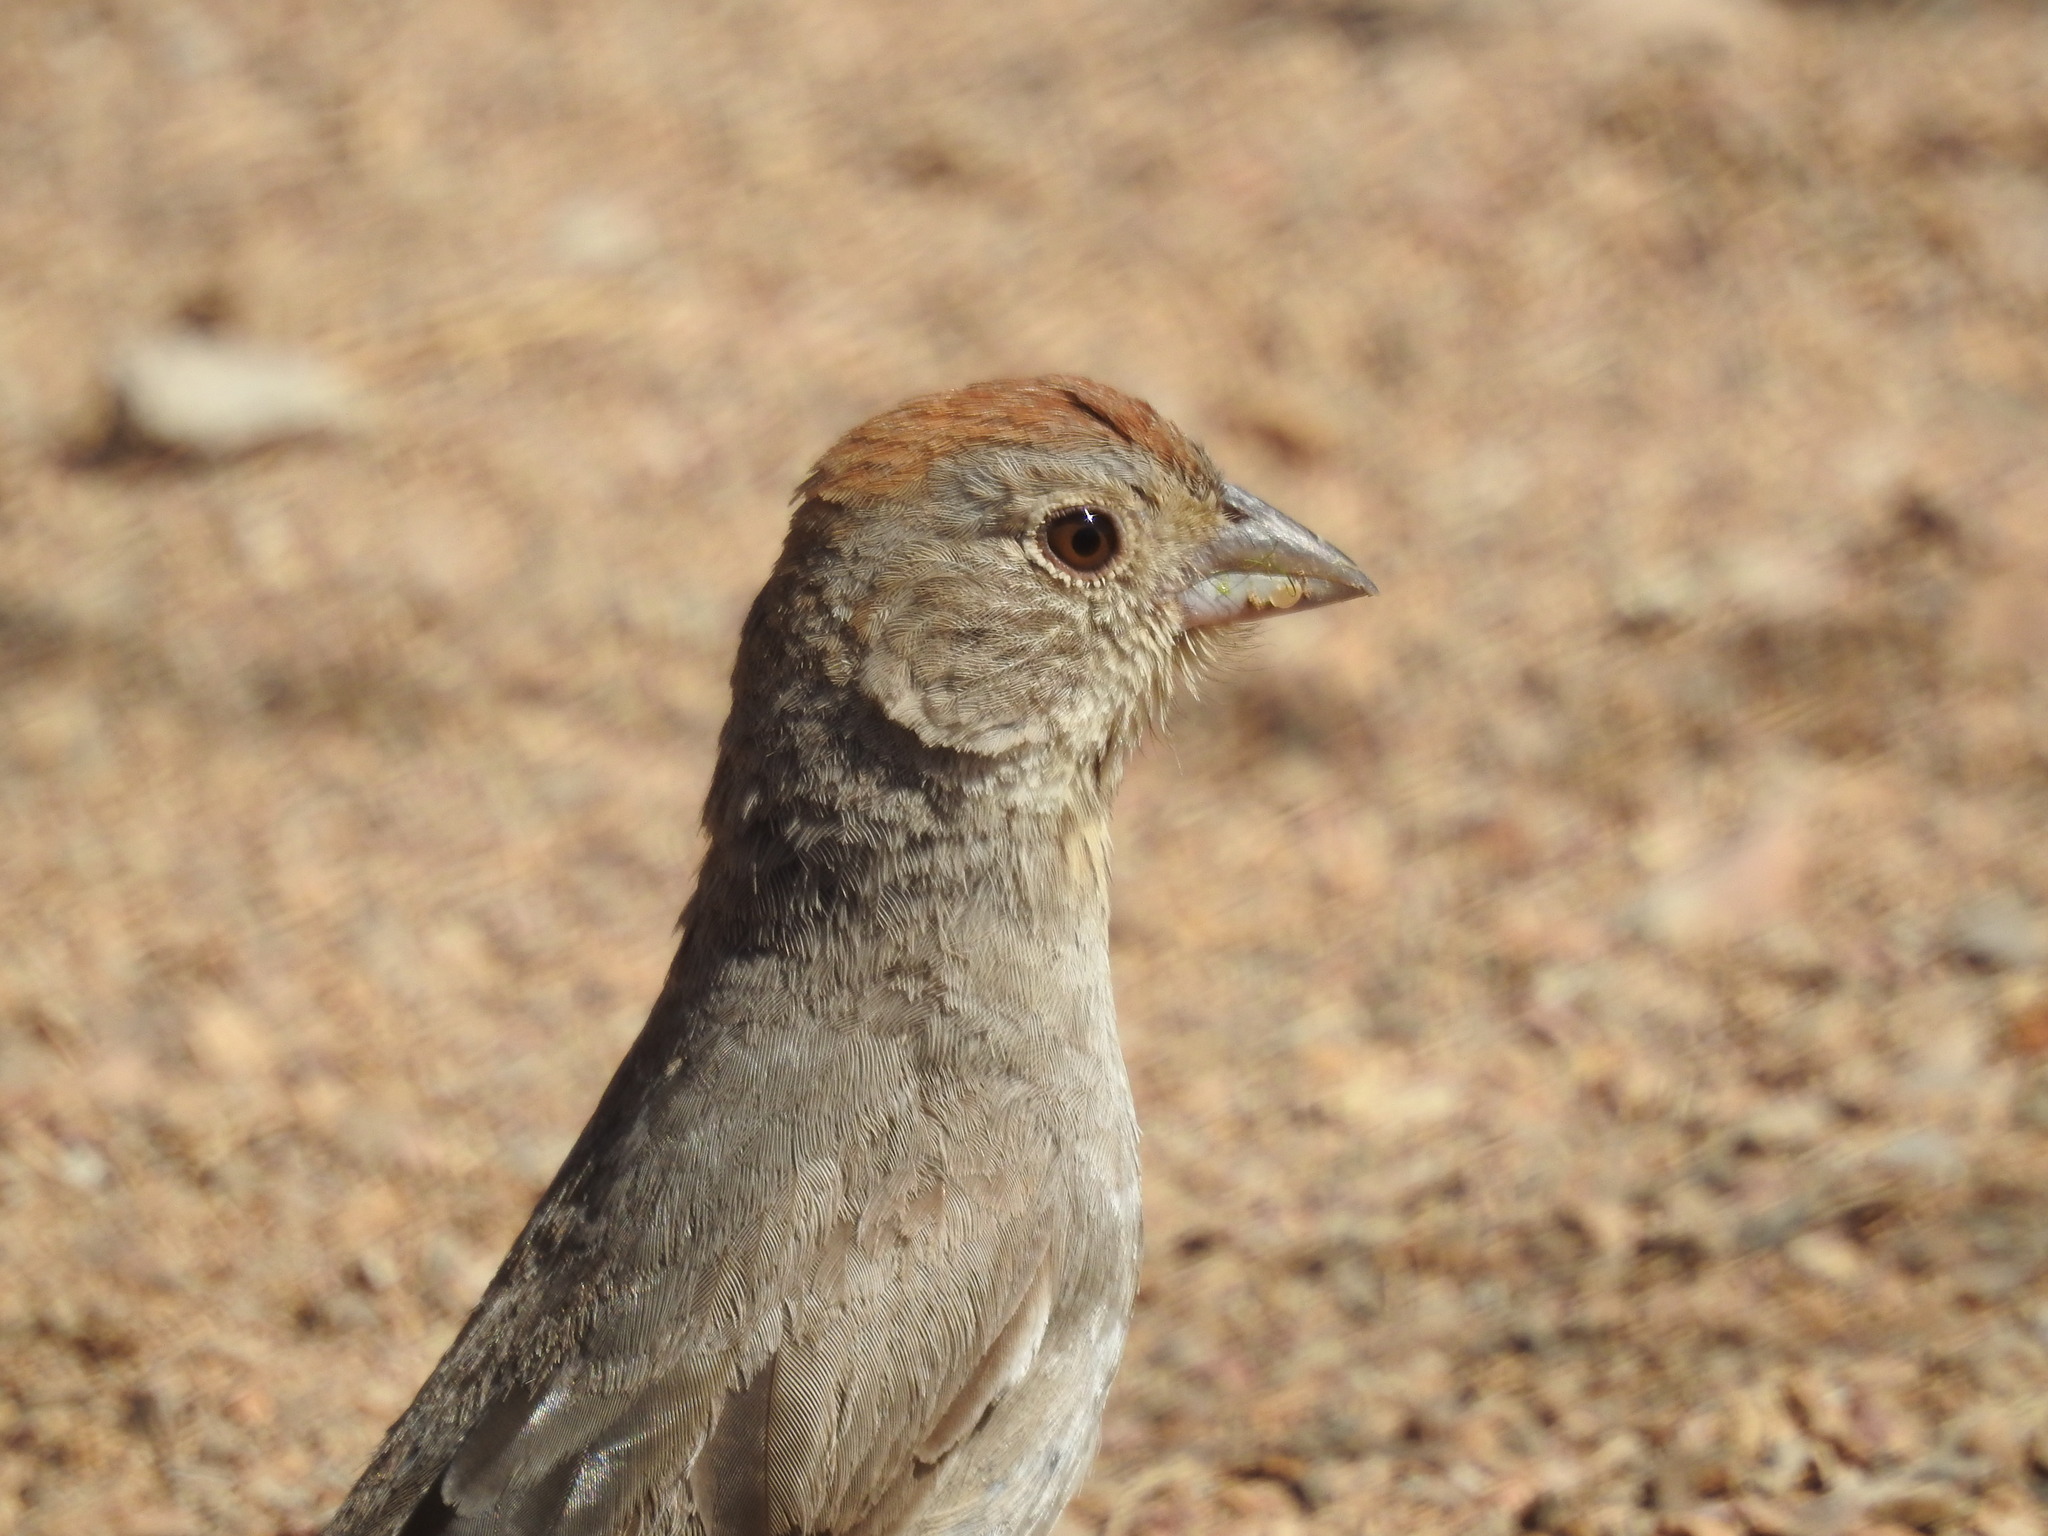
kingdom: Animalia
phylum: Chordata
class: Aves
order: Passeriformes
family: Passerellidae
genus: Melozone
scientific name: Melozone fusca
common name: Canyon towhee
